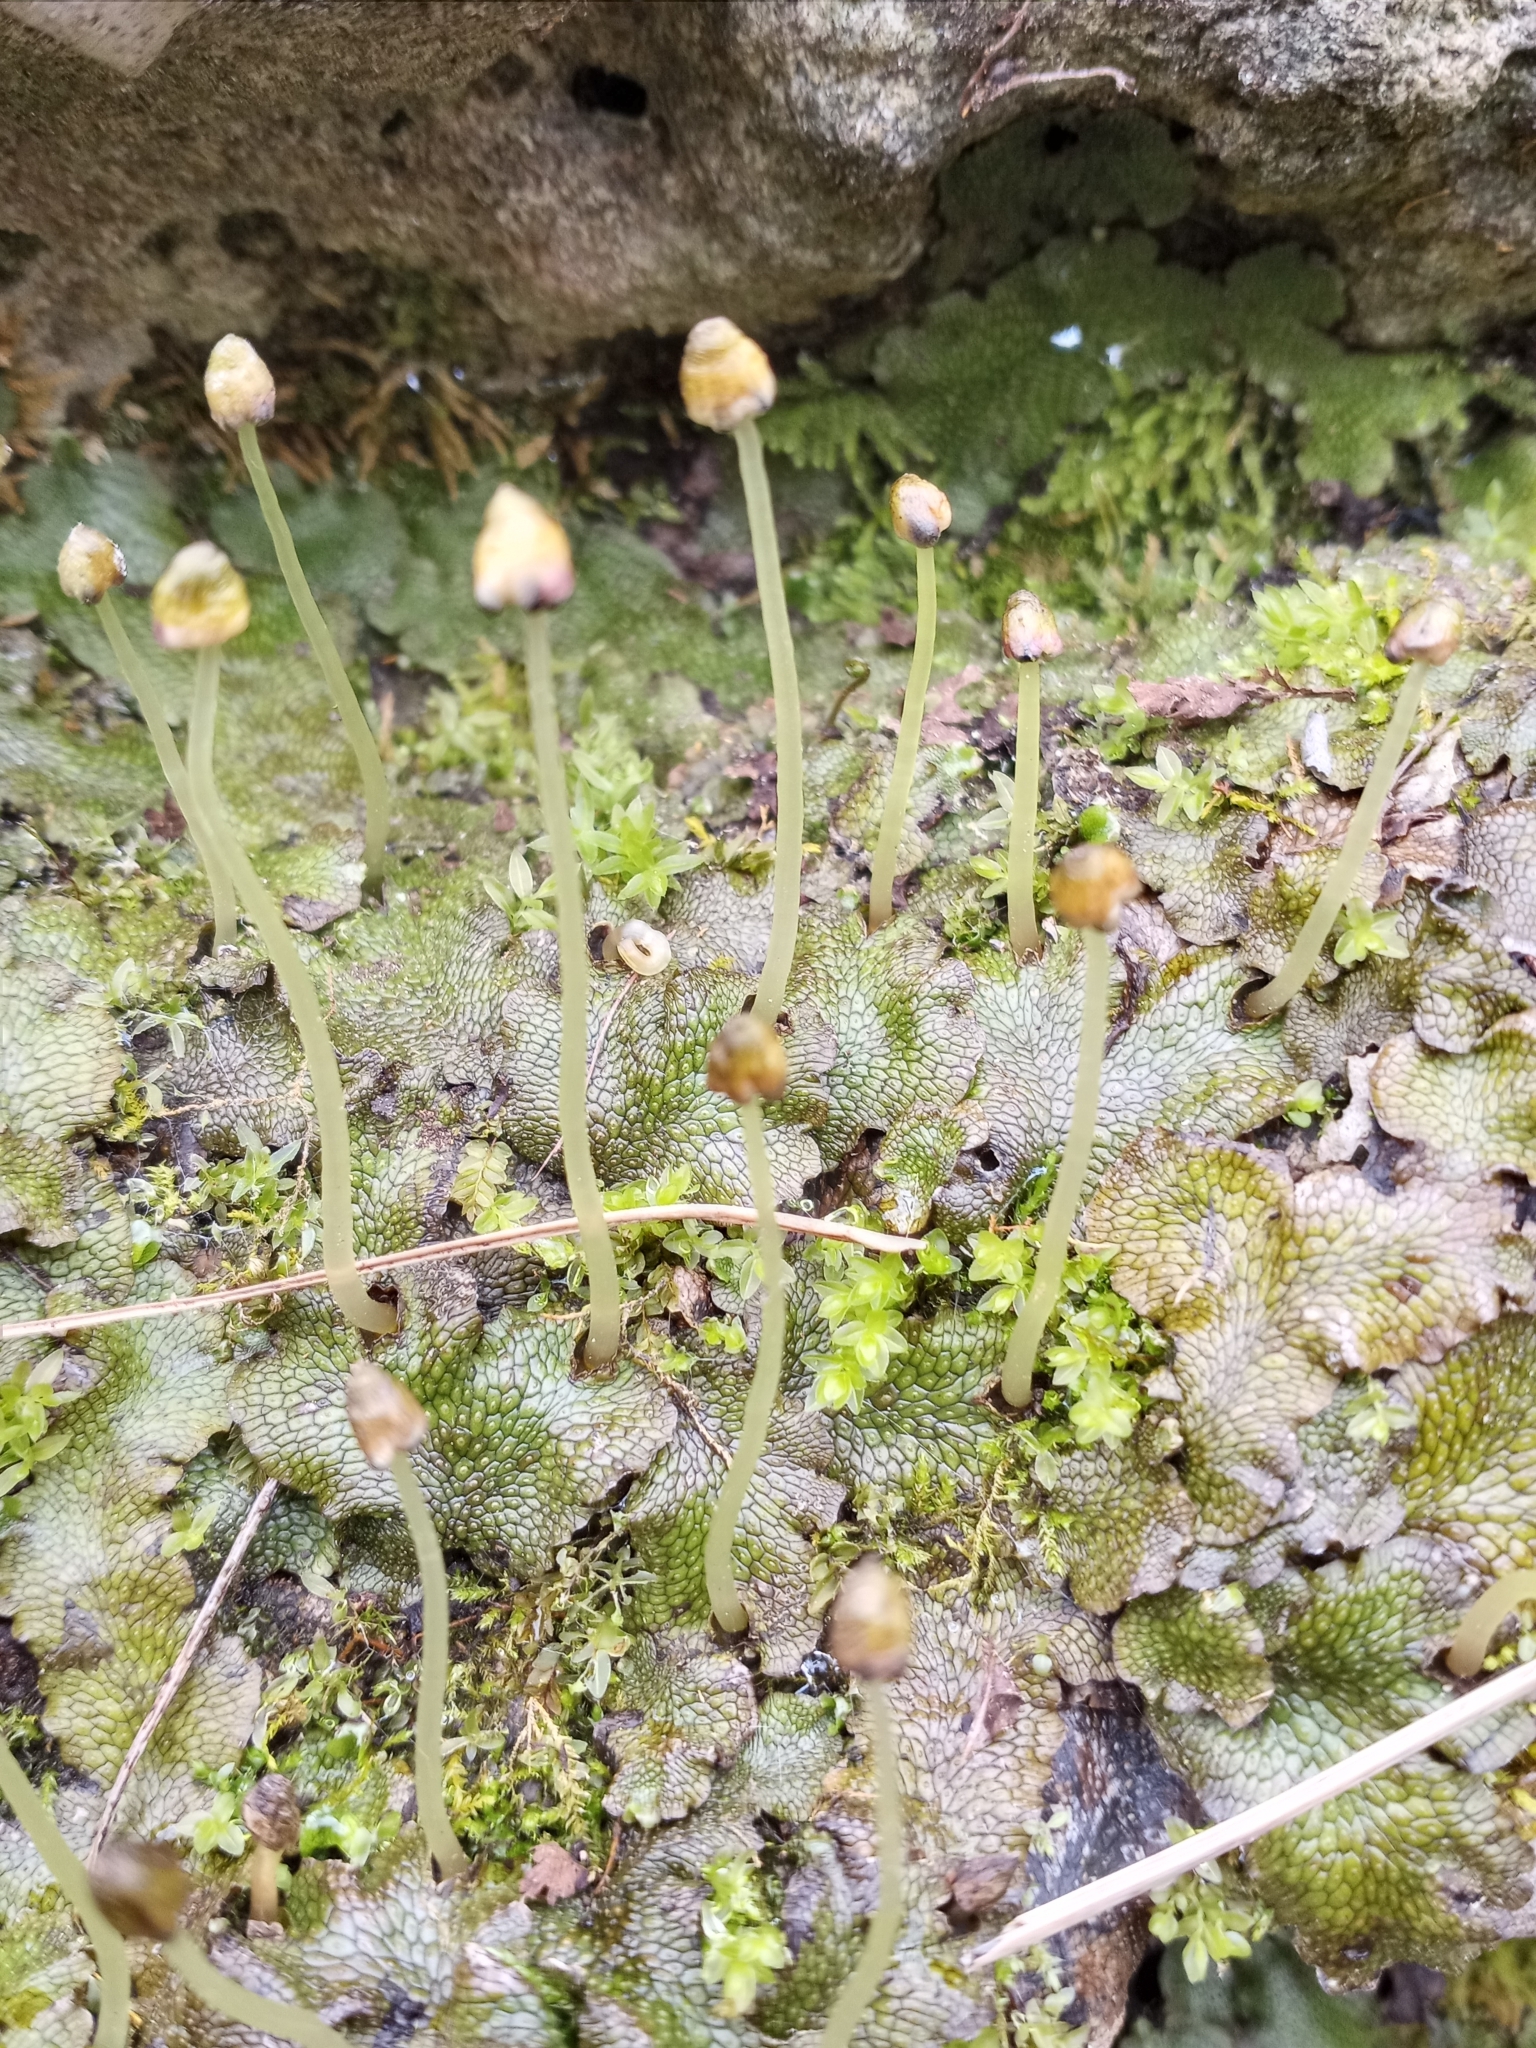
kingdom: Plantae
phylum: Marchantiophyta
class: Marchantiopsida
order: Marchantiales
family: Conocephalaceae
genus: Conocephalum
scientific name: Conocephalum salebrosum
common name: Cat-tongue liverwort
